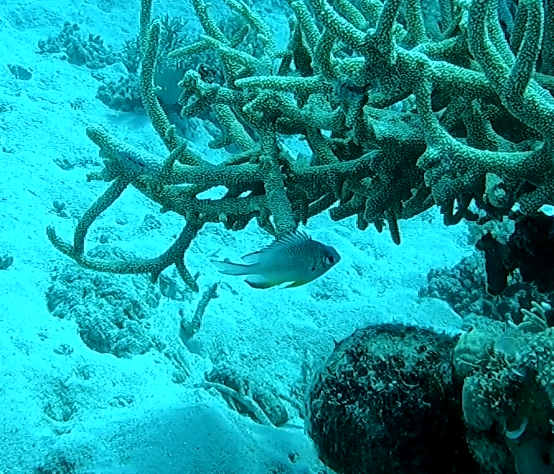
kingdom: Animalia
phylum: Chordata
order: Perciformes
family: Pomacentridae
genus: Amblyglyphidodon
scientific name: Amblyglyphidodon leucogaster
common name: White-belly damsel
